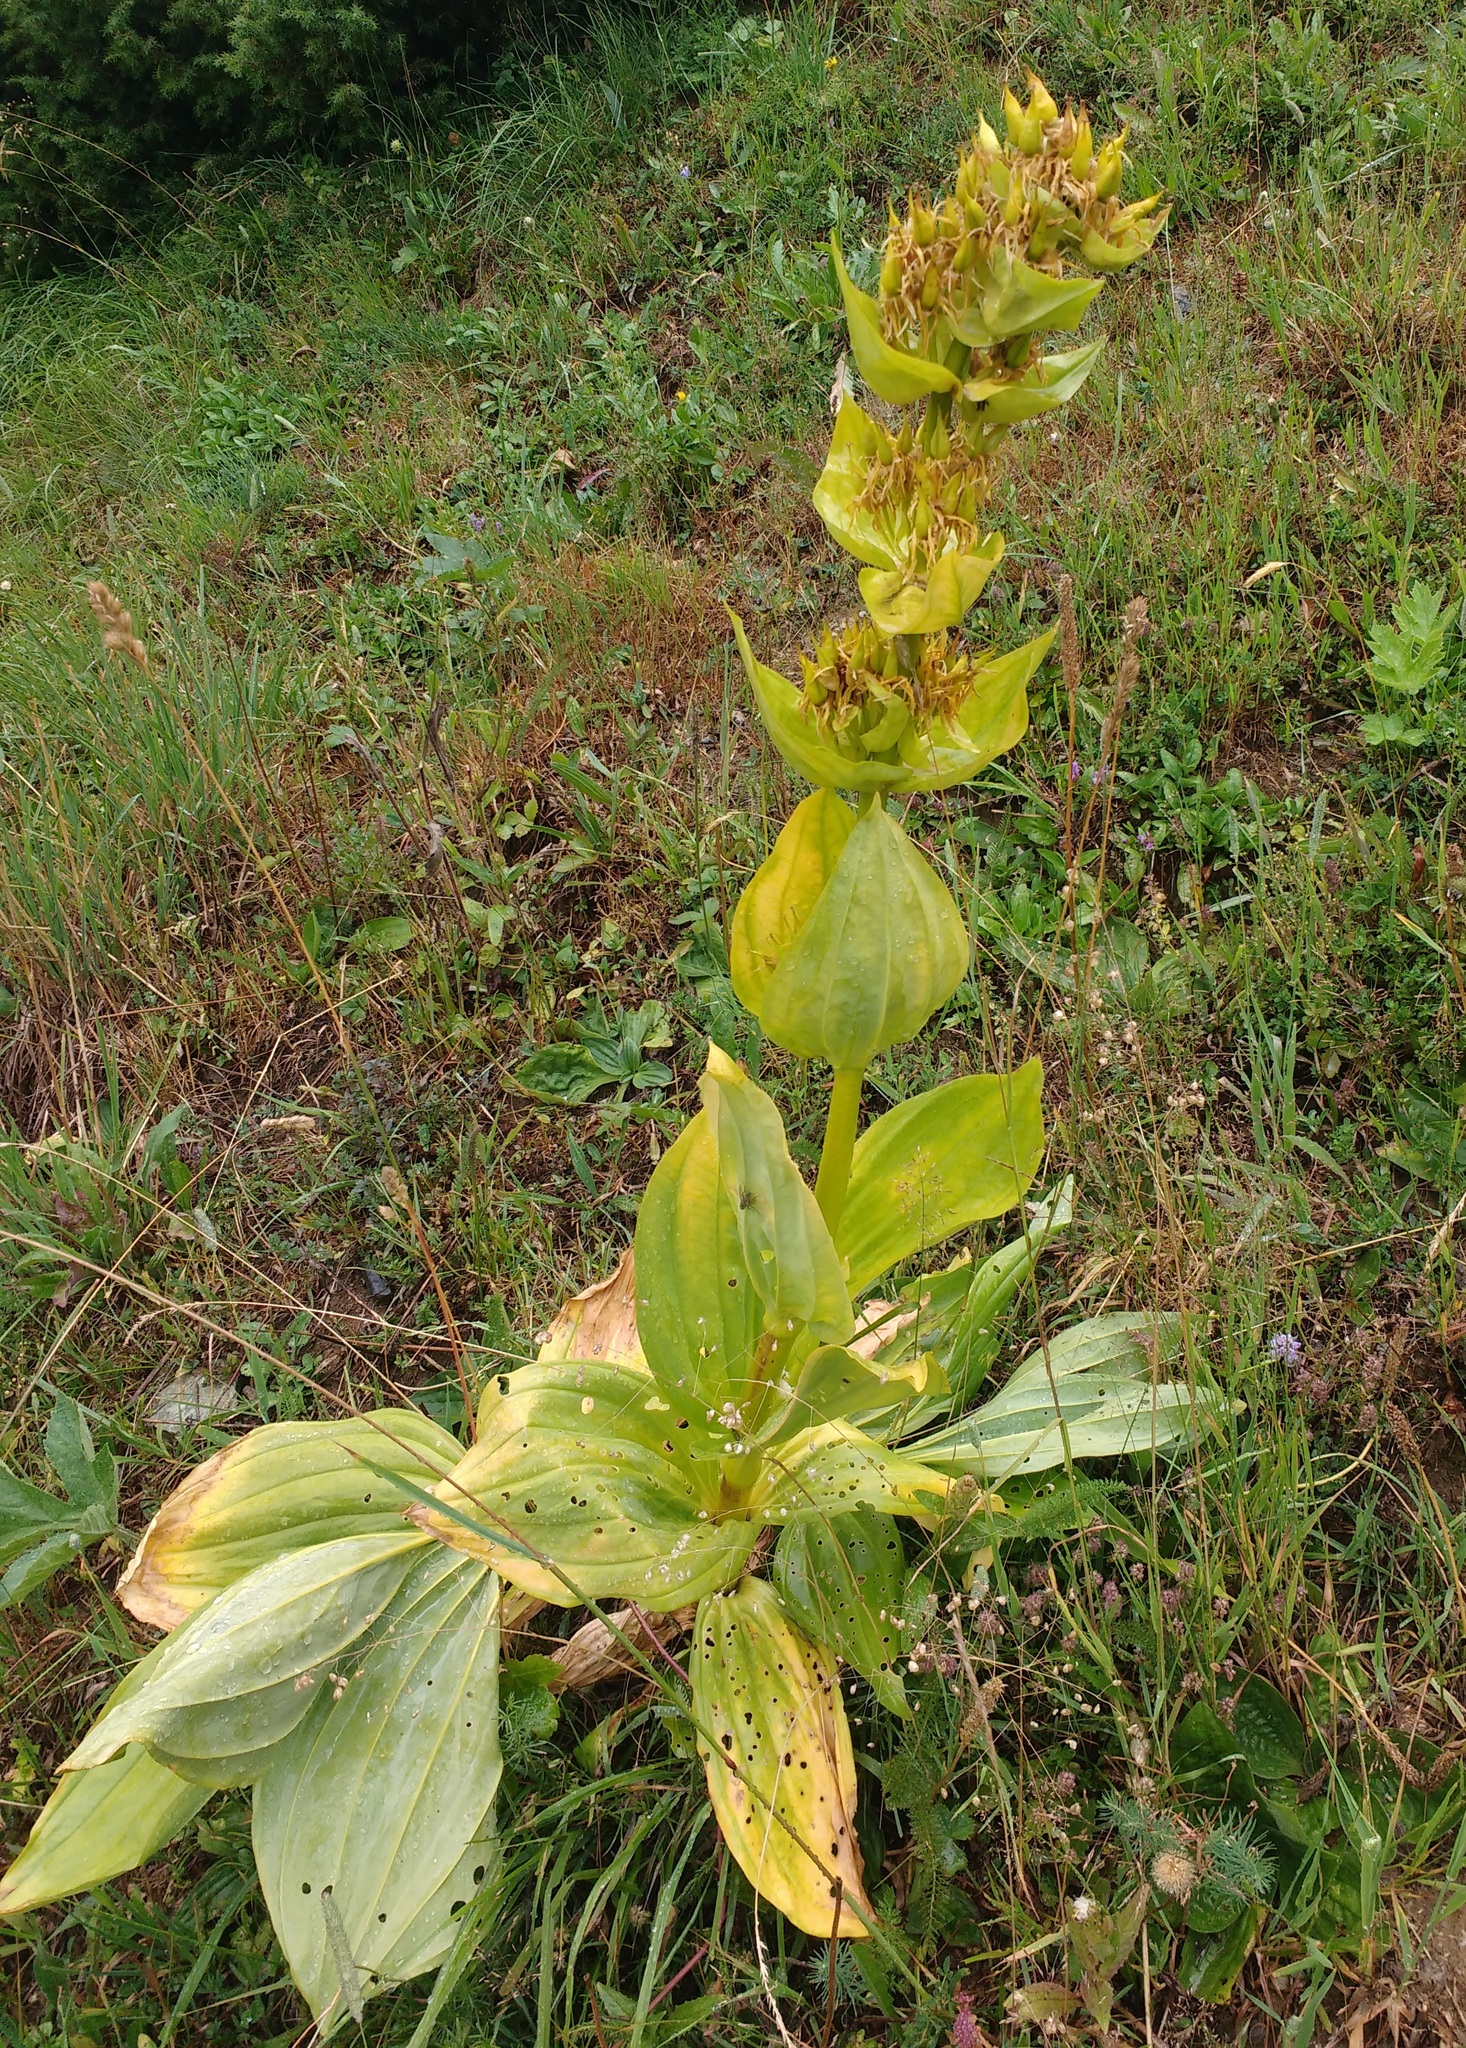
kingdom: Plantae
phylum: Tracheophyta
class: Magnoliopsida
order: Gentianales
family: Gentianaceae
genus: Gentiana
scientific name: Gentiana lutea
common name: Great yellow gentian
